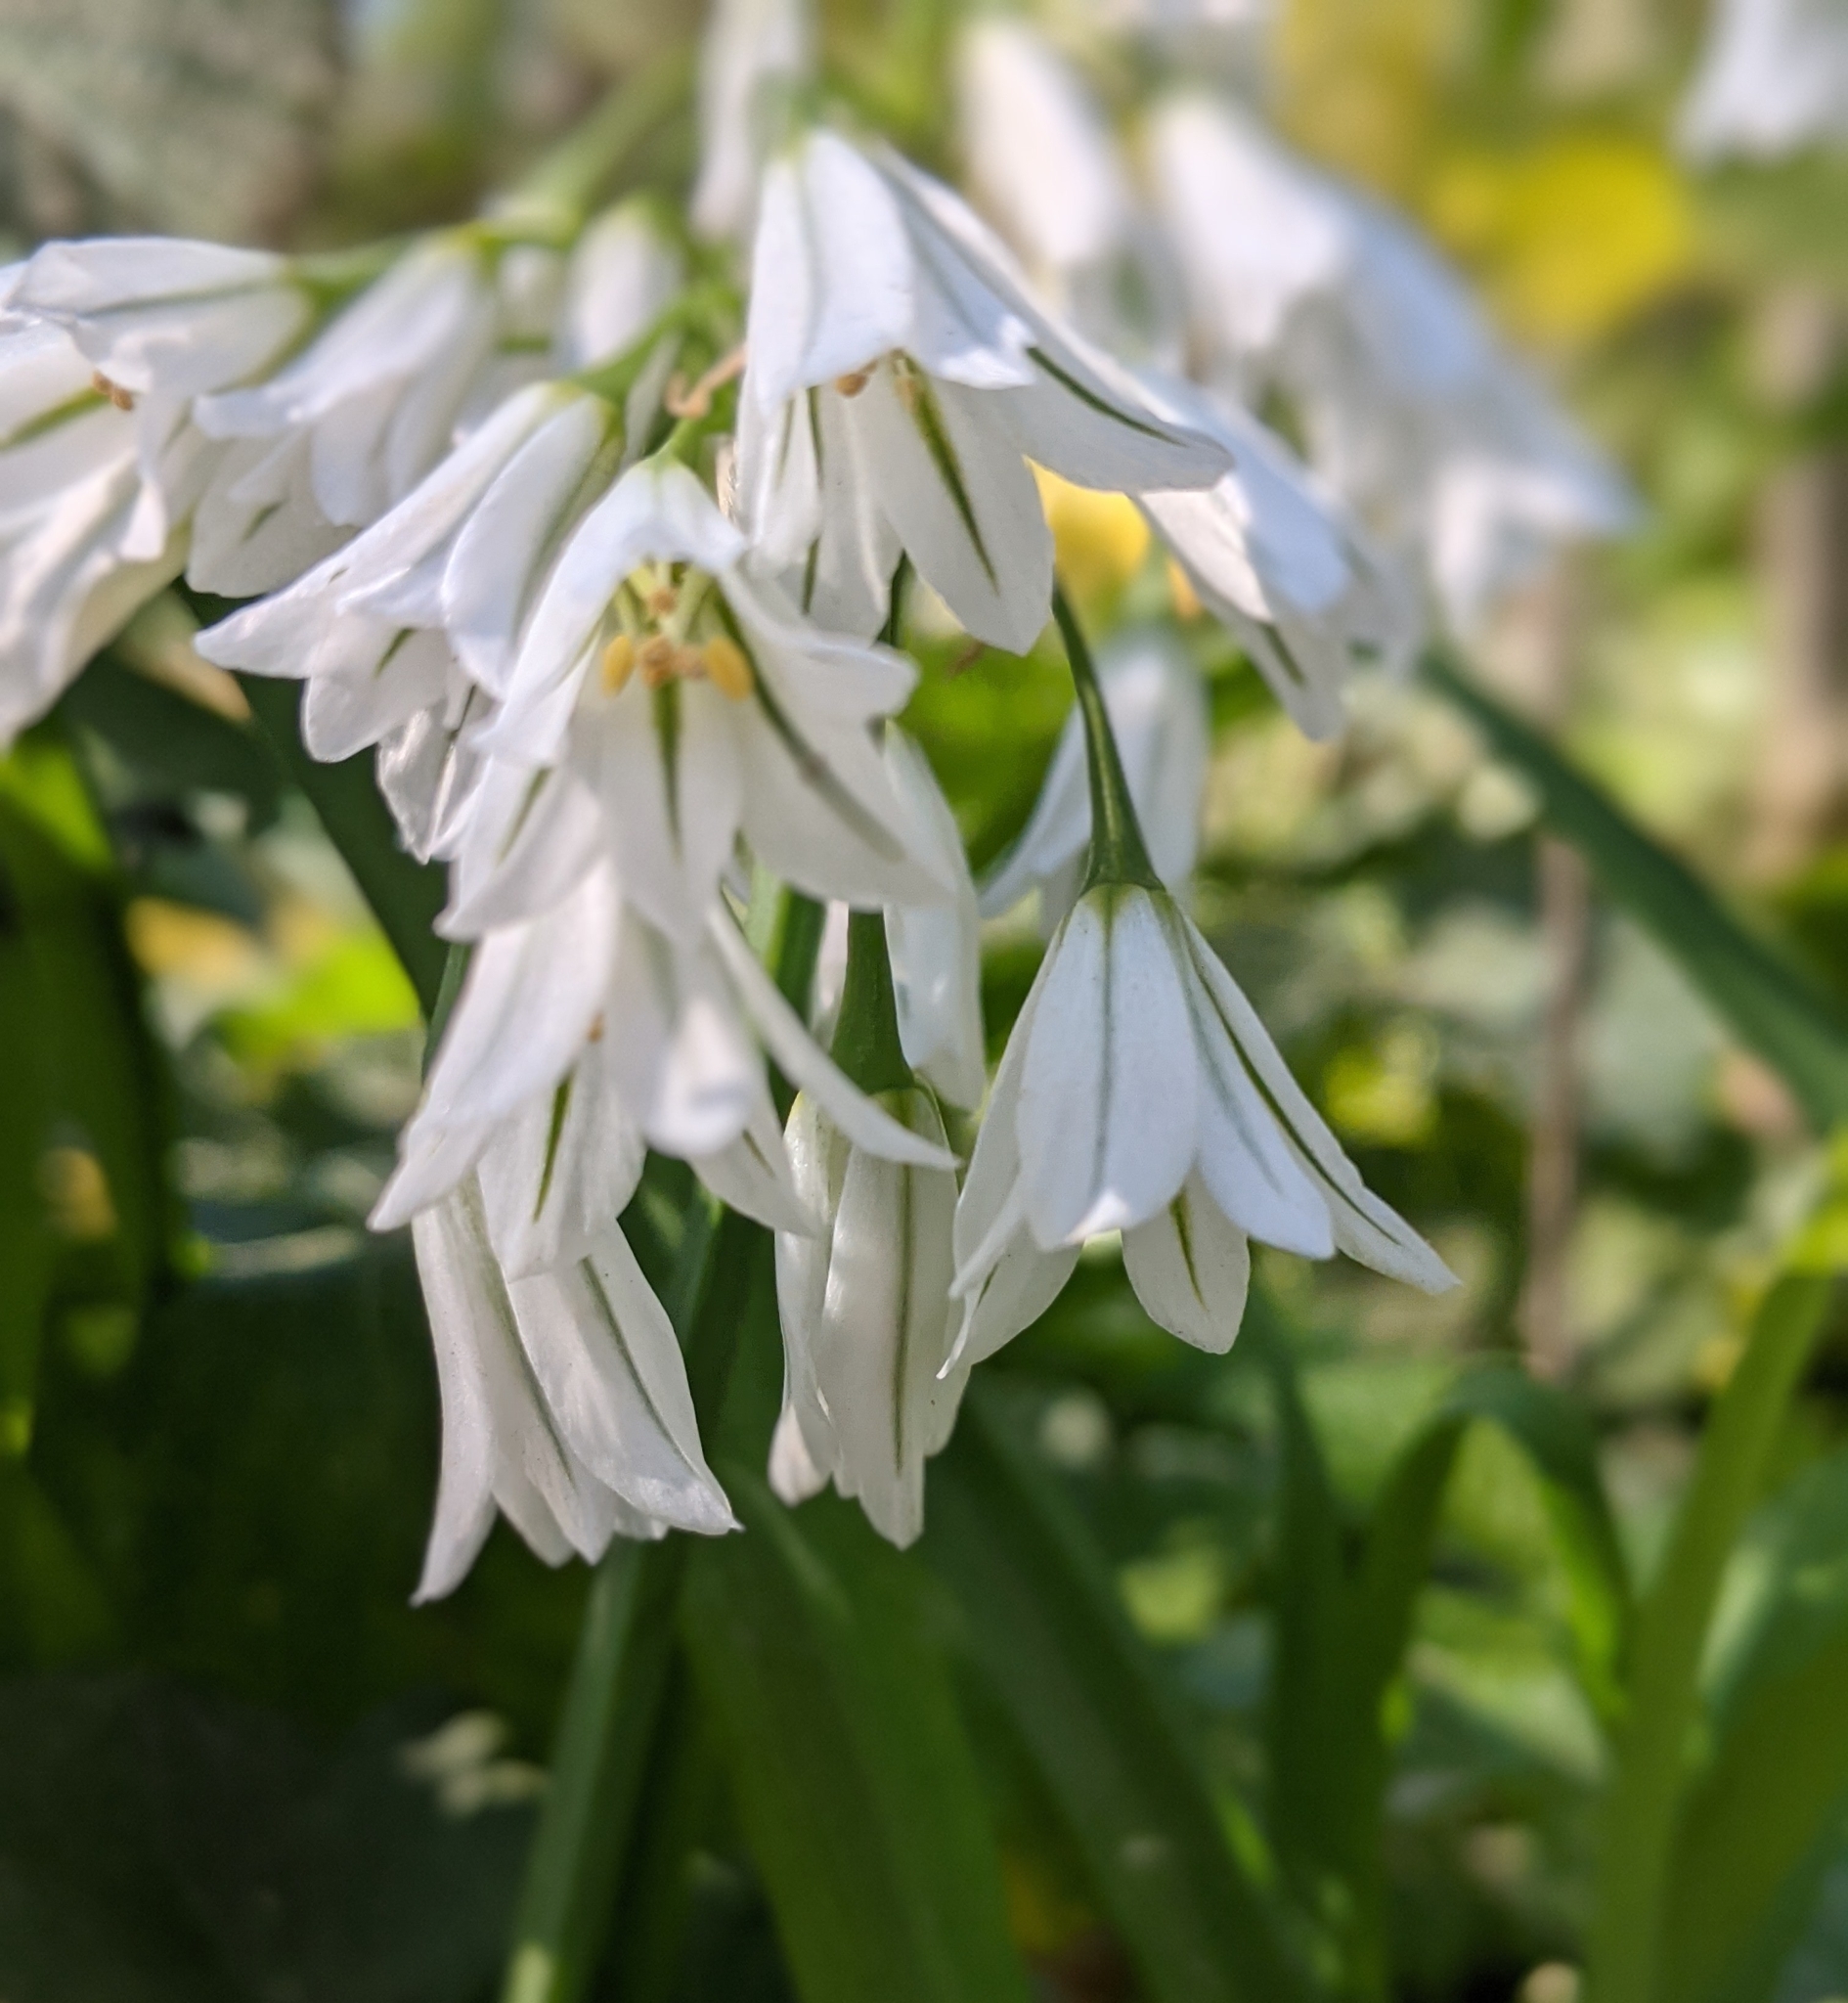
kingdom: Plantae
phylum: Tracheophyta
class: Liliopsida
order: Asparagales
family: Amaryllidaceae
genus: Allium
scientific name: Allium triquetrum
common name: Three-cornered garlic
